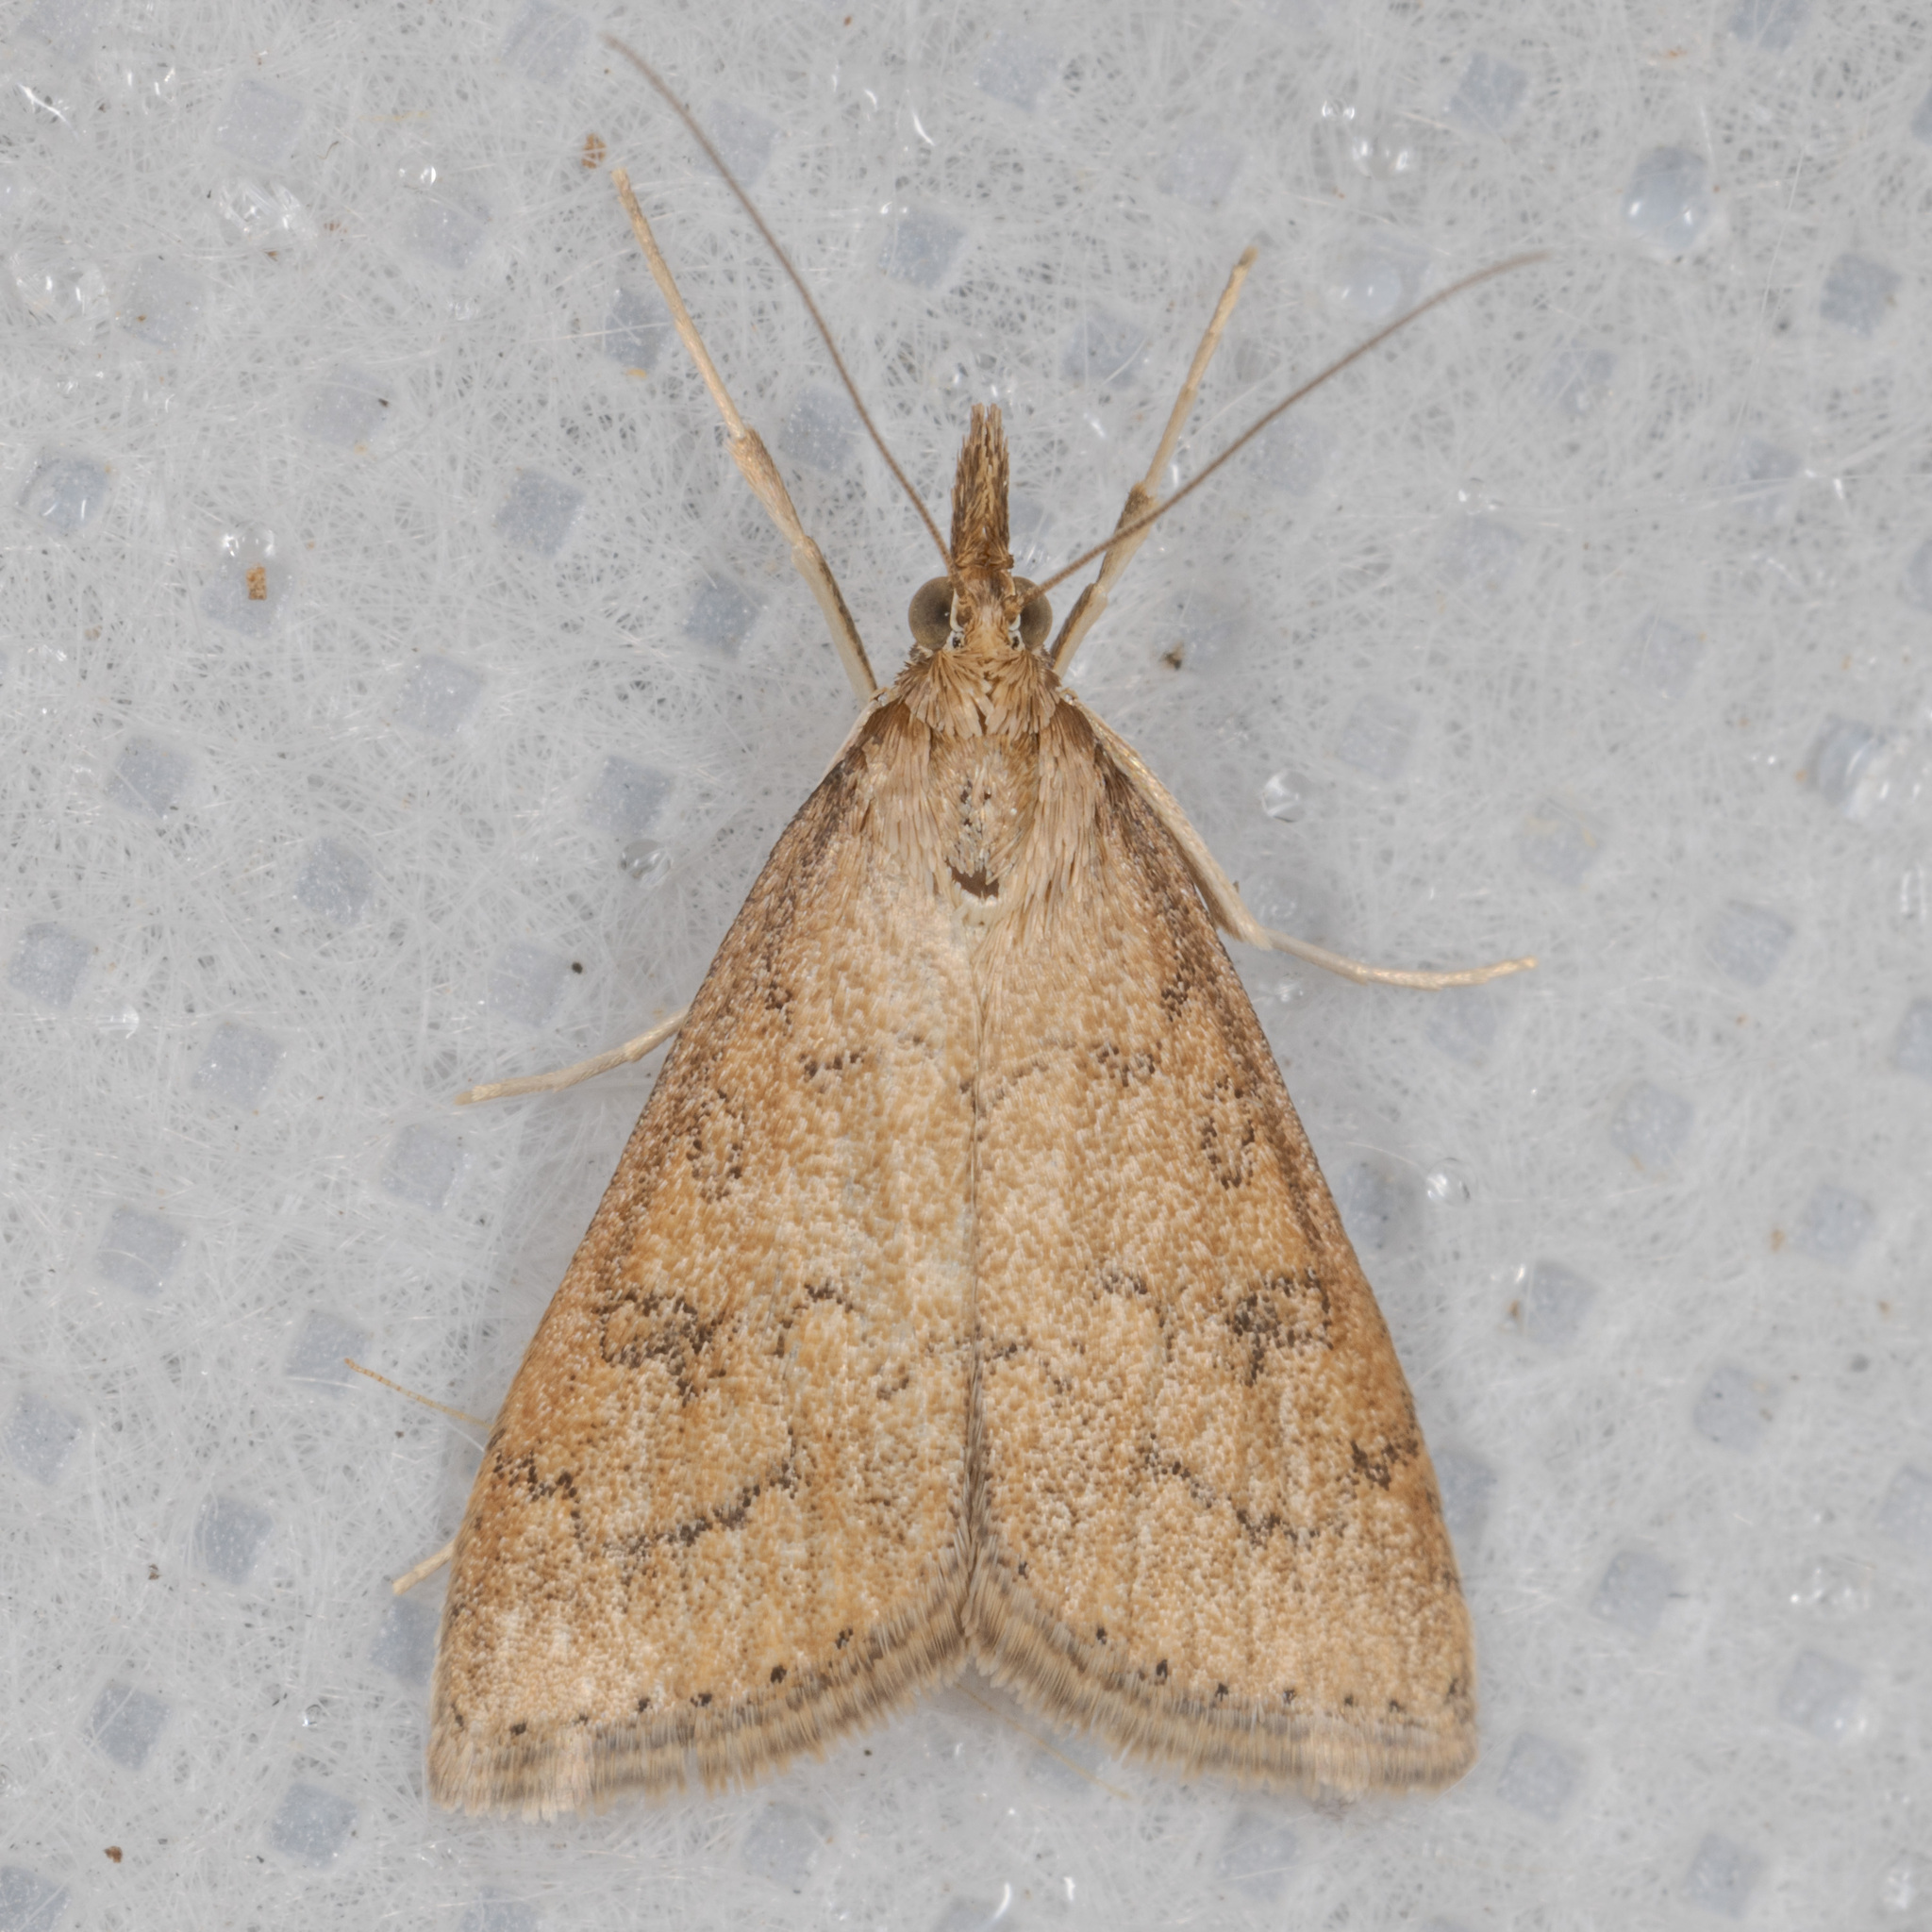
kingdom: Animalia
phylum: Arthropoda
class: Insecta
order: Lepidoptera
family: Crambidae
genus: Udea
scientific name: Udea rubigalis
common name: Celery leaftier moth
